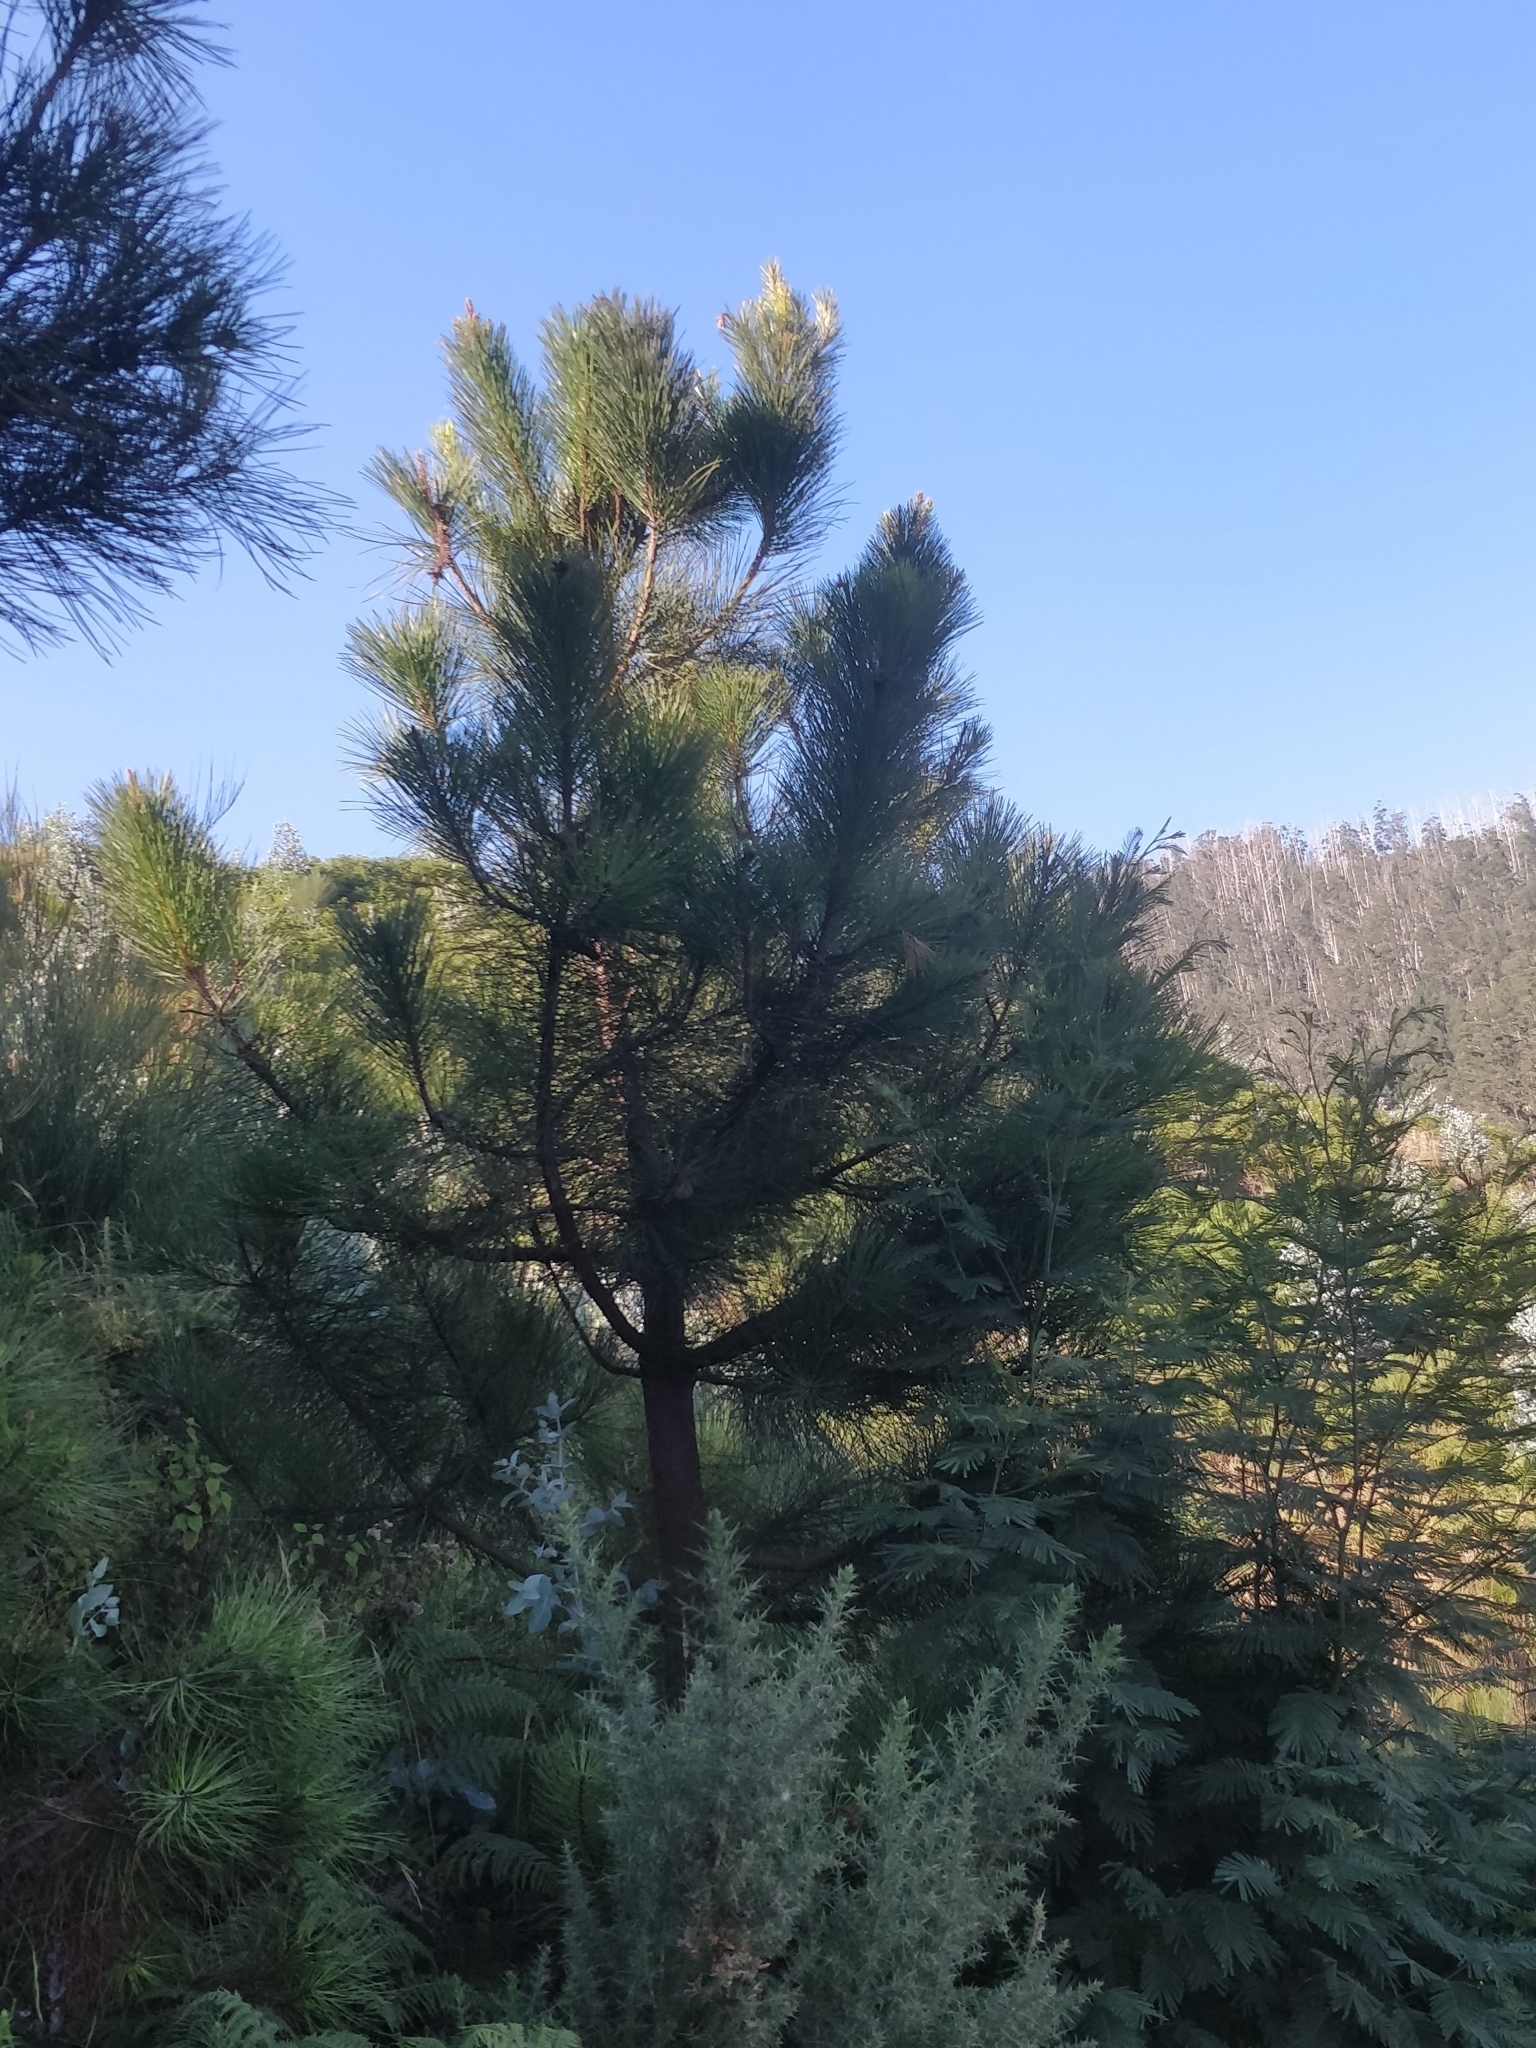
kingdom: Plantae
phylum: Tracheophyta
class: Pinopsida
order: Pinales
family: Pinaceae
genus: Pinus
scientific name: Pinus pinaster
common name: Maritime pine
